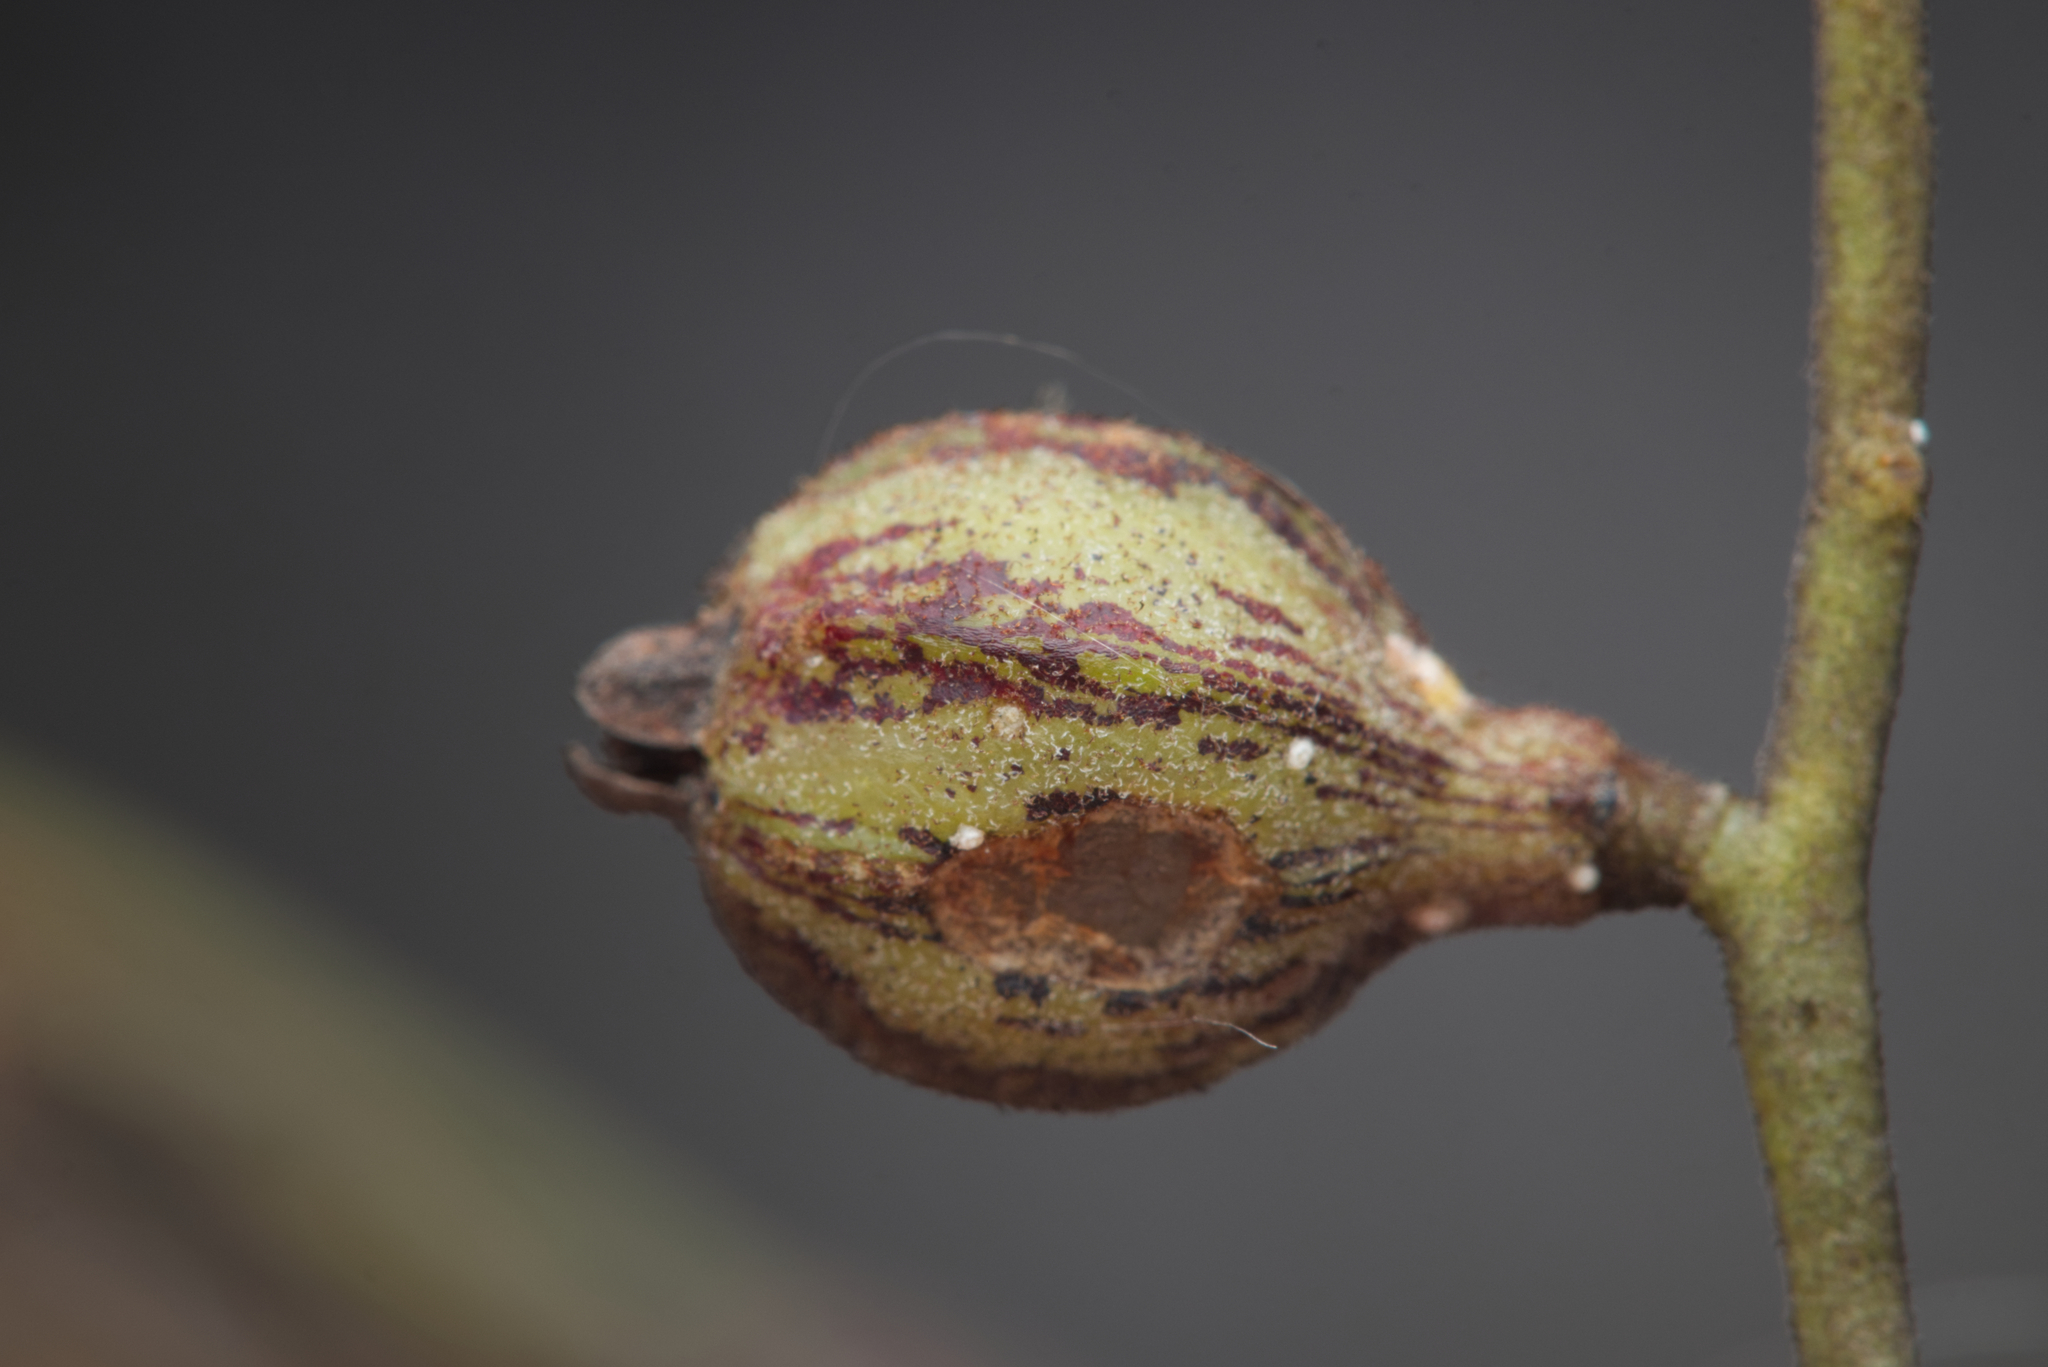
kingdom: Plantae
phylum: Tracheophyta
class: Magnoliopsida
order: Laurales
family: Lauraceae
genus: Cassytha
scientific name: Cassytha pubescens
